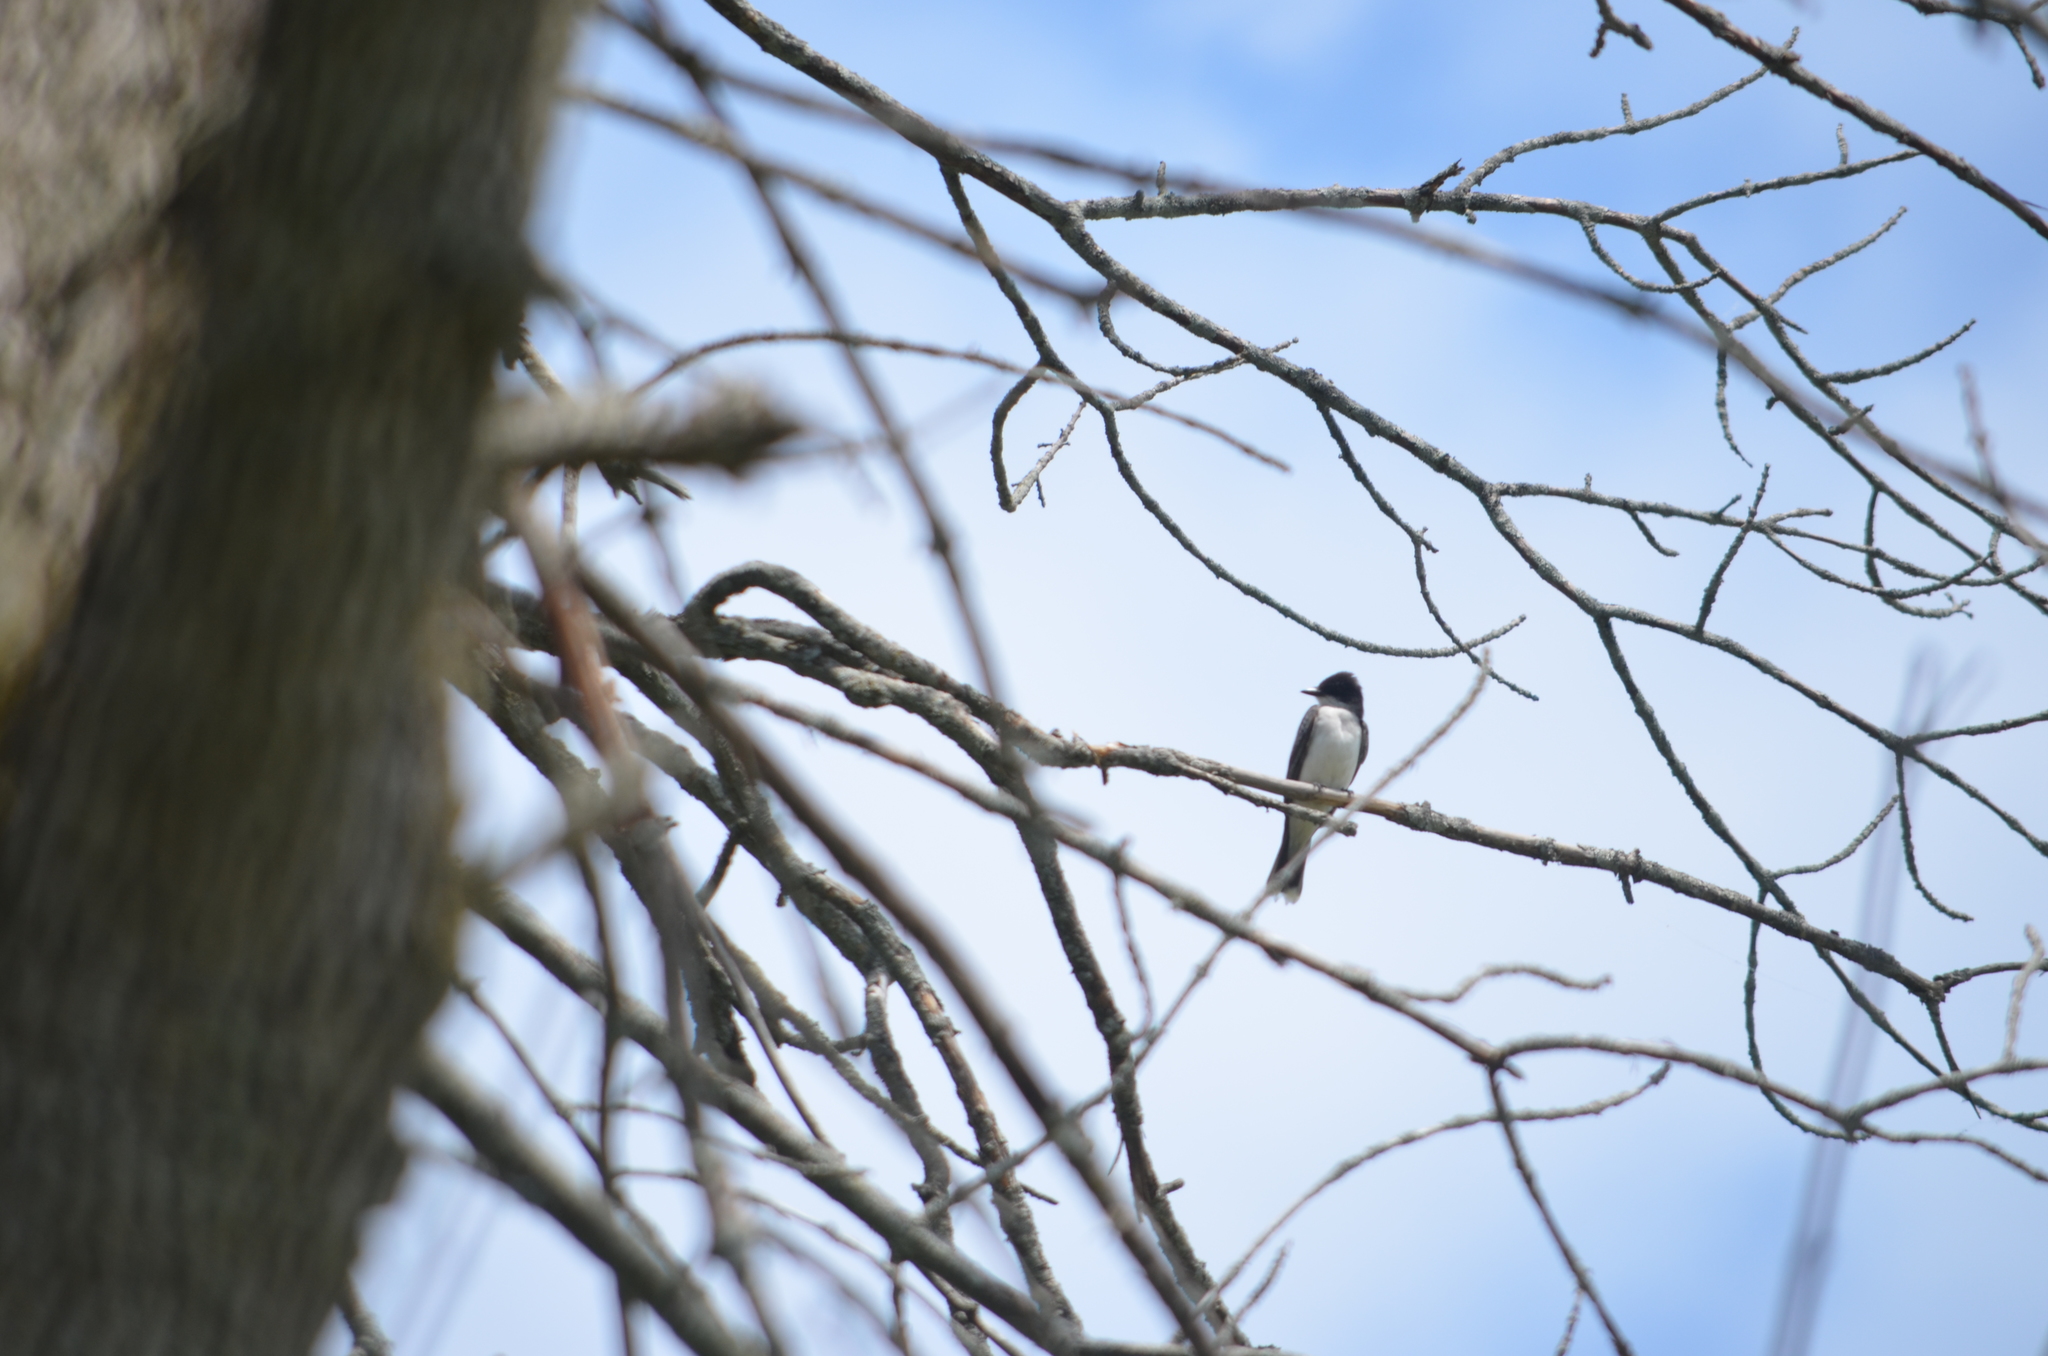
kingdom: Animalia
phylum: Chordata
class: Aves
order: Passeriformes
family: Tyrannidae
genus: Tyrannus
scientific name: Tyrannus tyrannus
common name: Eastern kingbird
